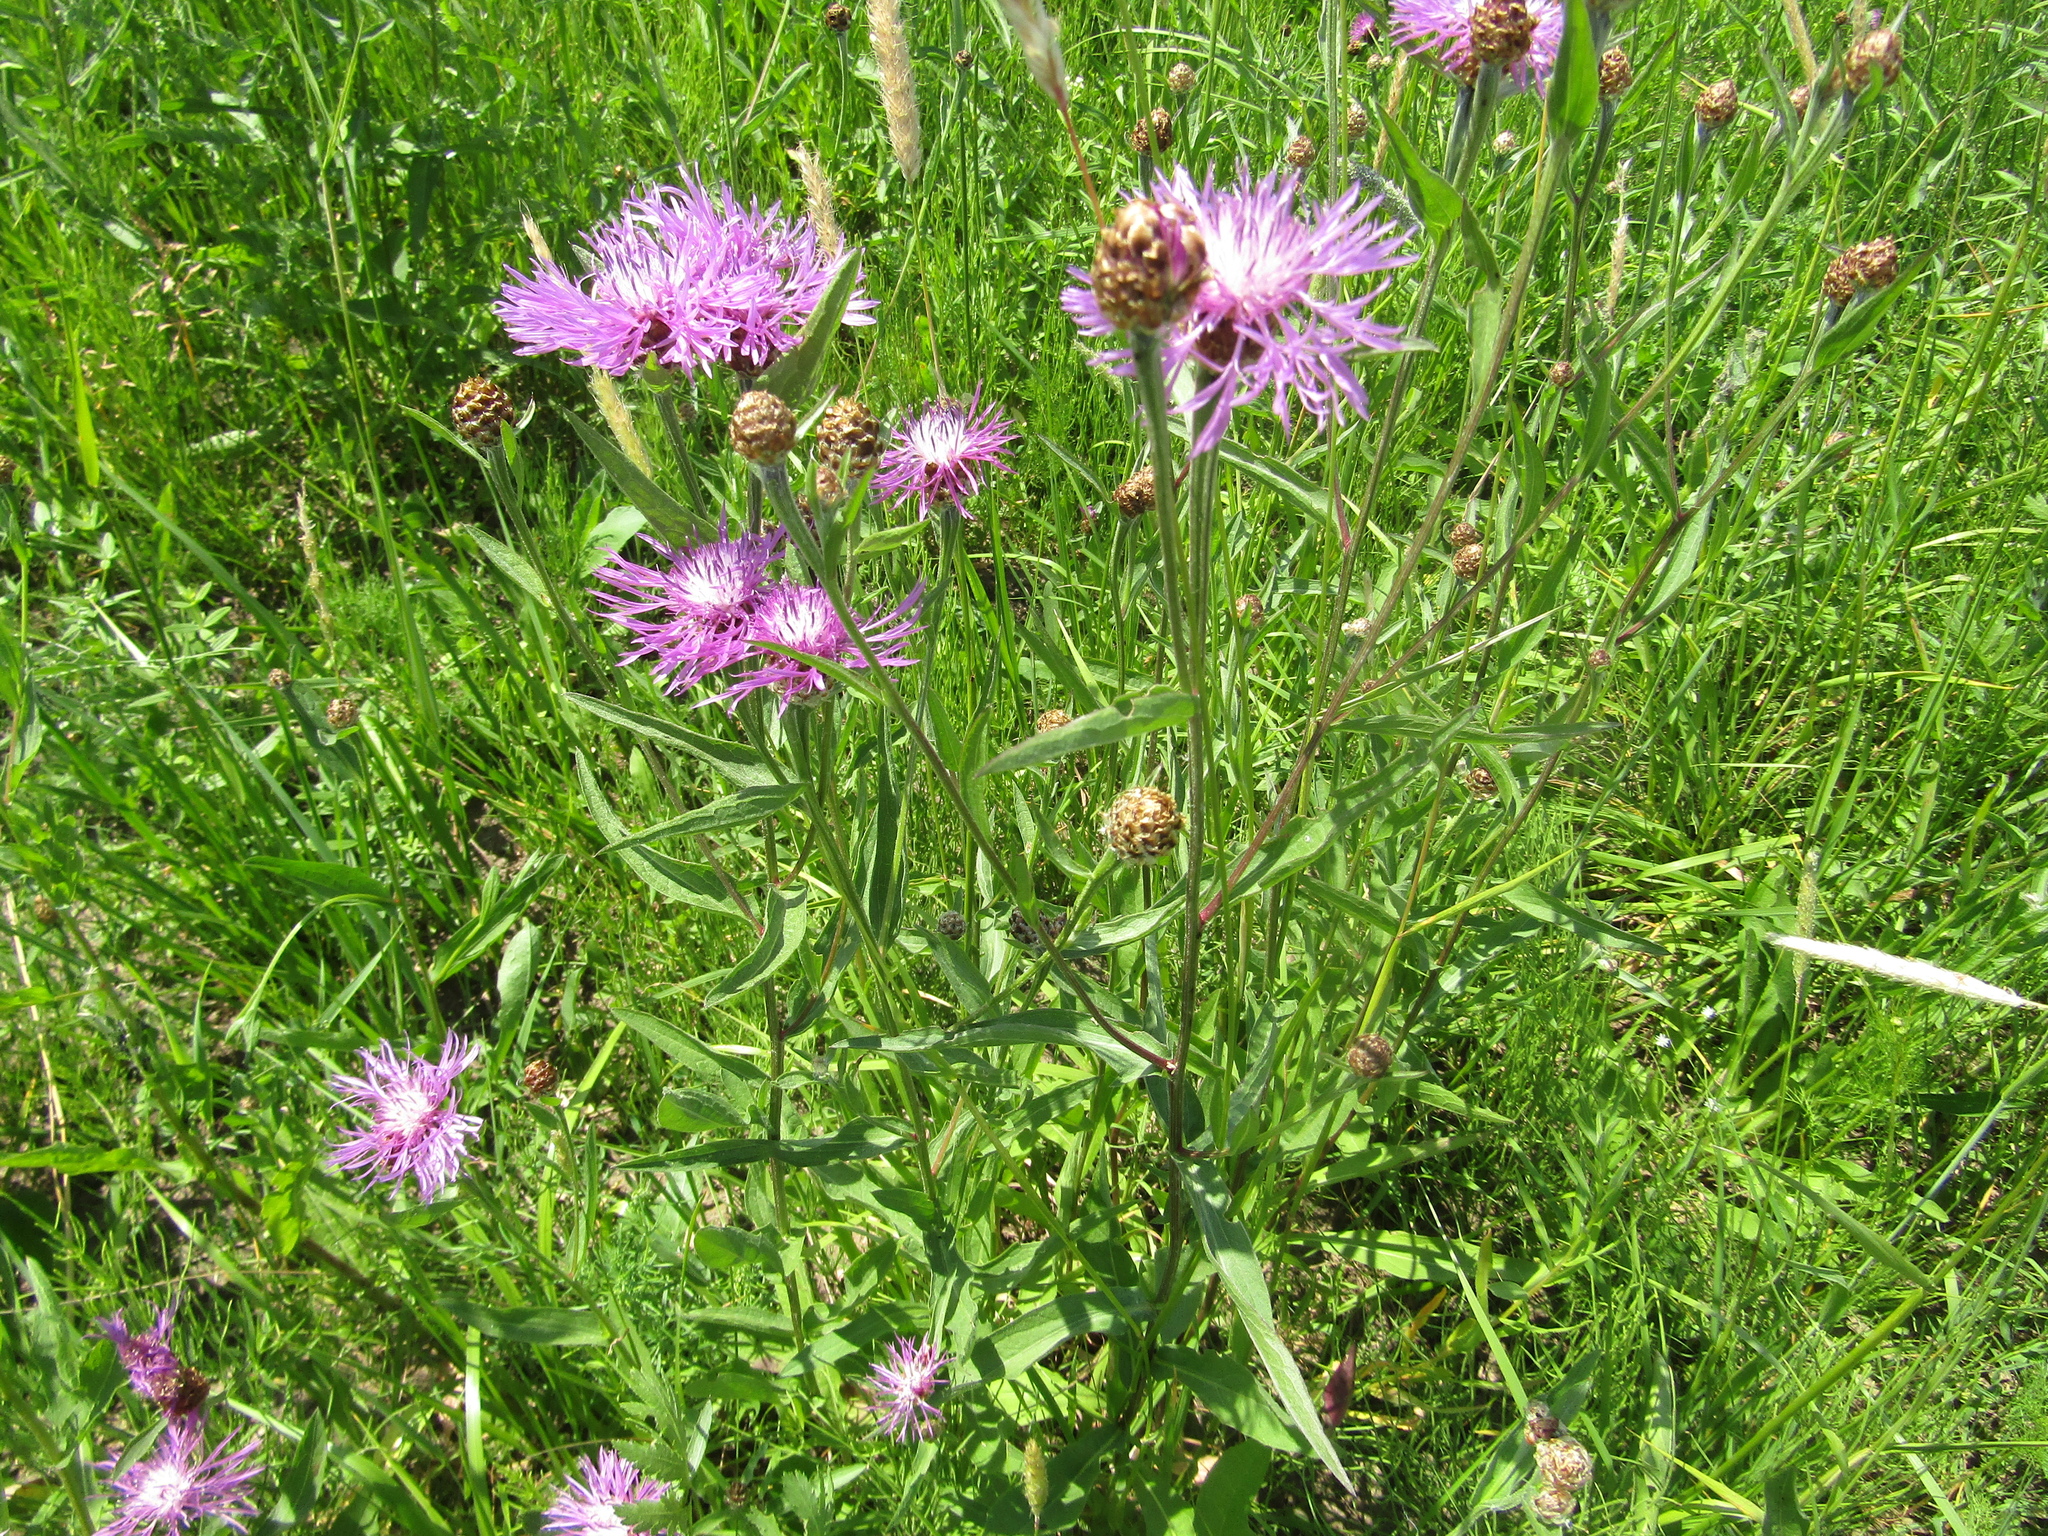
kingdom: Plantae
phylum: Tracheophyta
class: Magnoliopsida
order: Asterales
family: Asteraceae
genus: Centaurea
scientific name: Centaurea jacea
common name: Brown knapweed
